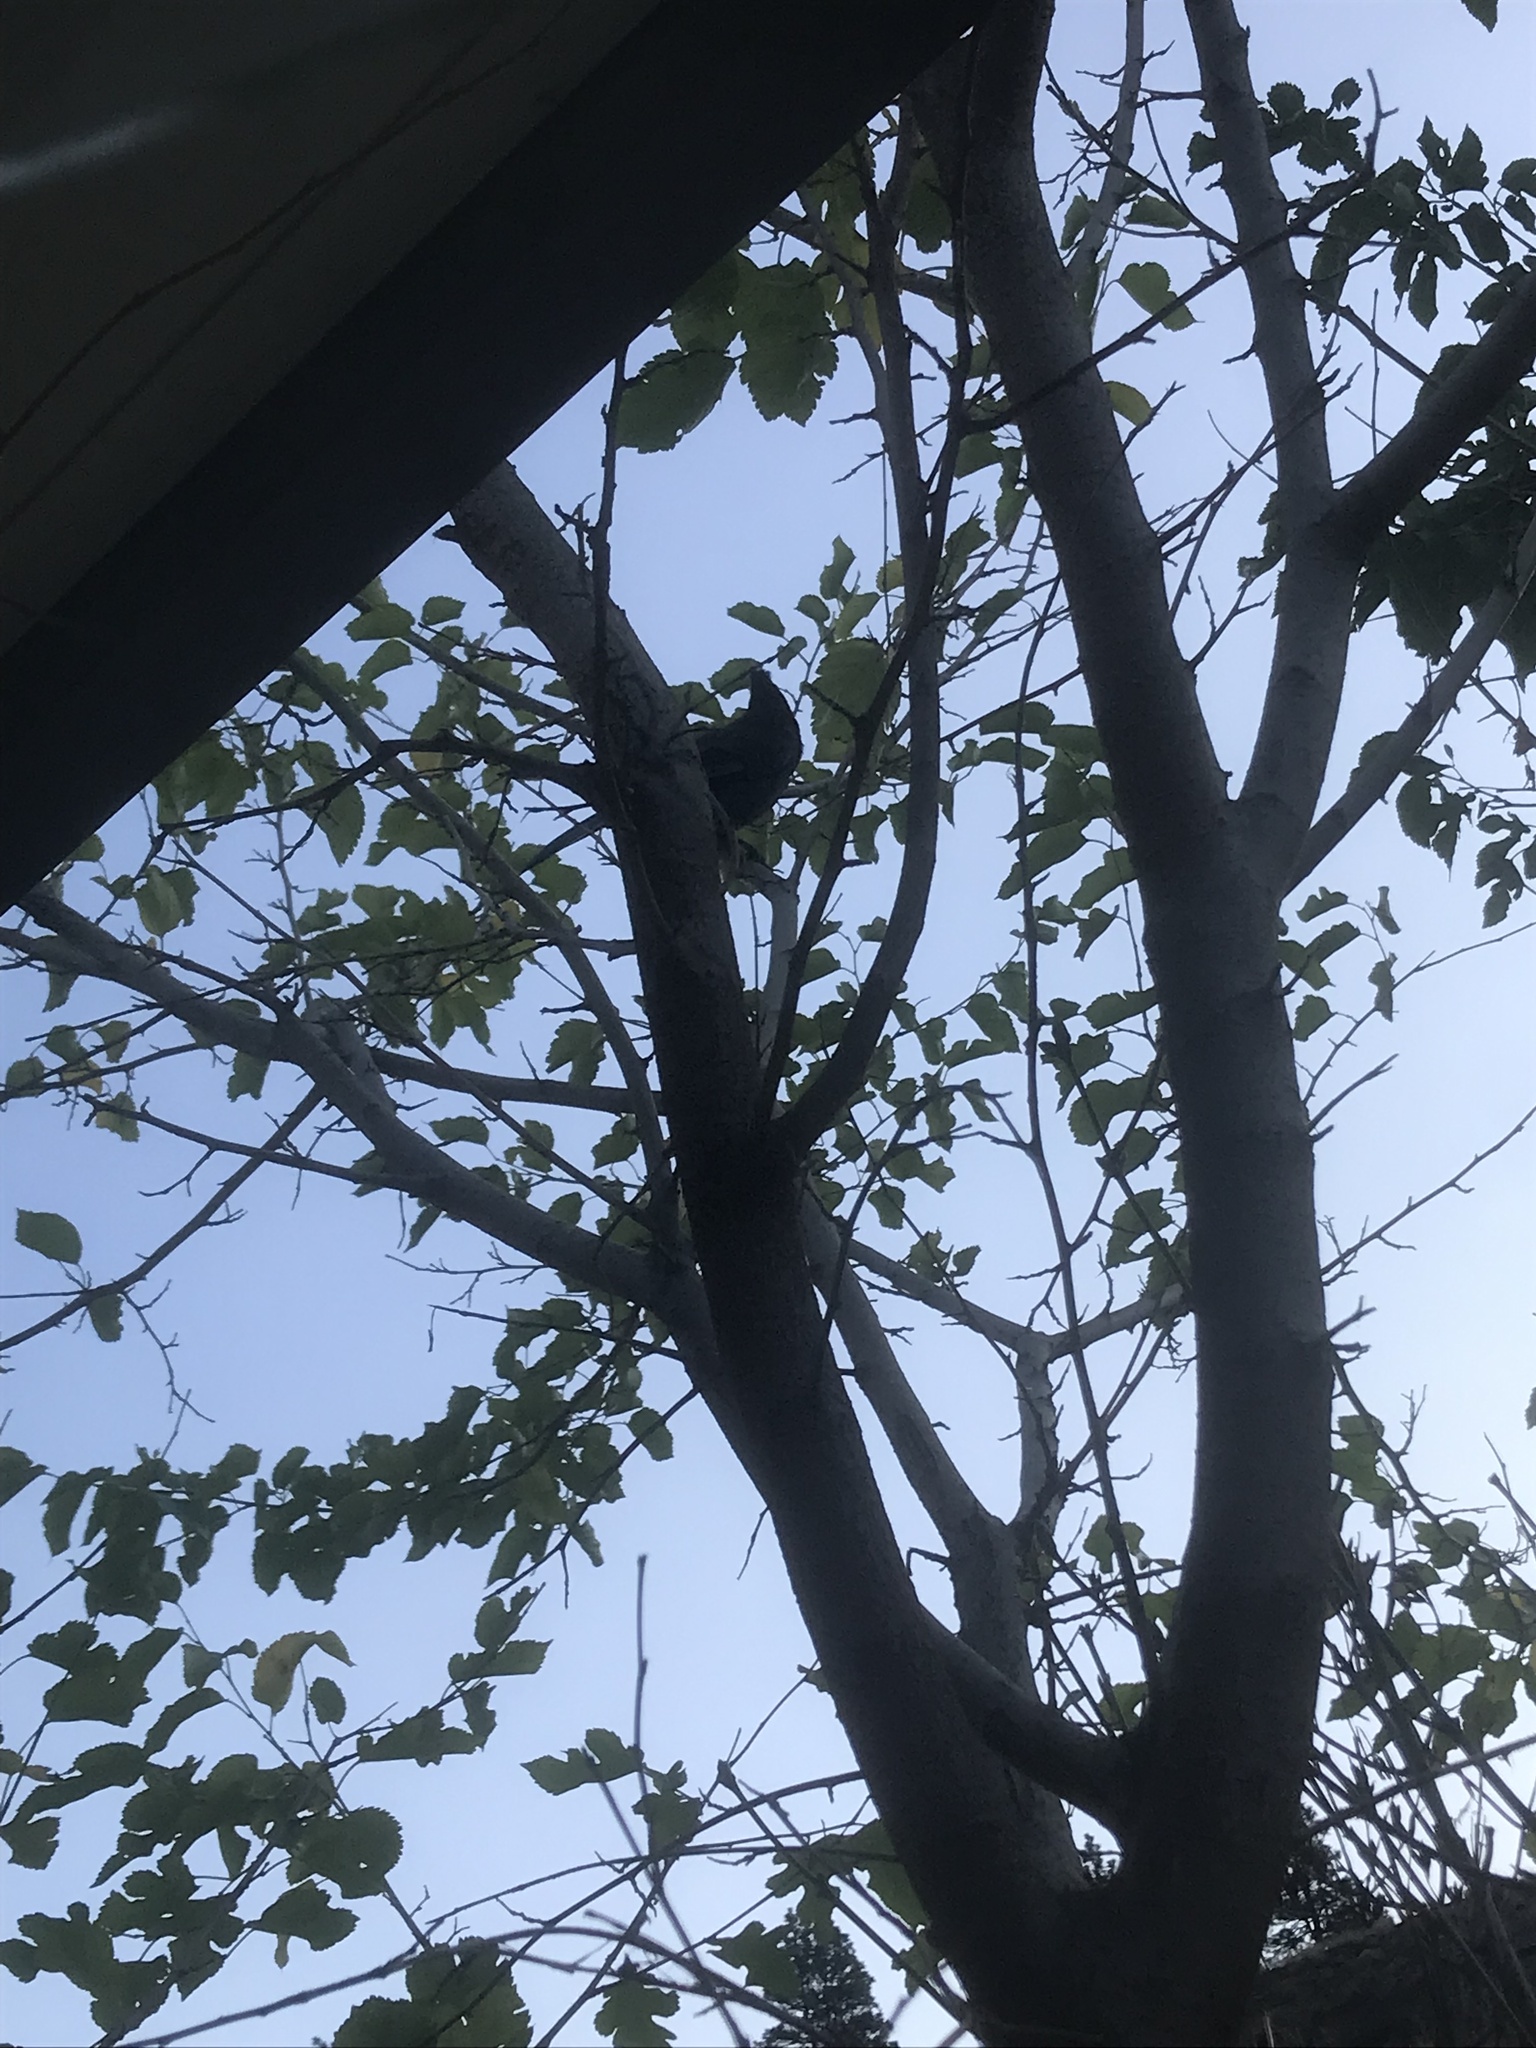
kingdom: Animalia
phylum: Chordata
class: Aves
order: Passeriformes
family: Corvidae
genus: Cyanocitta
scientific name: Cyanocitta stelleri
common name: Steller's jay
